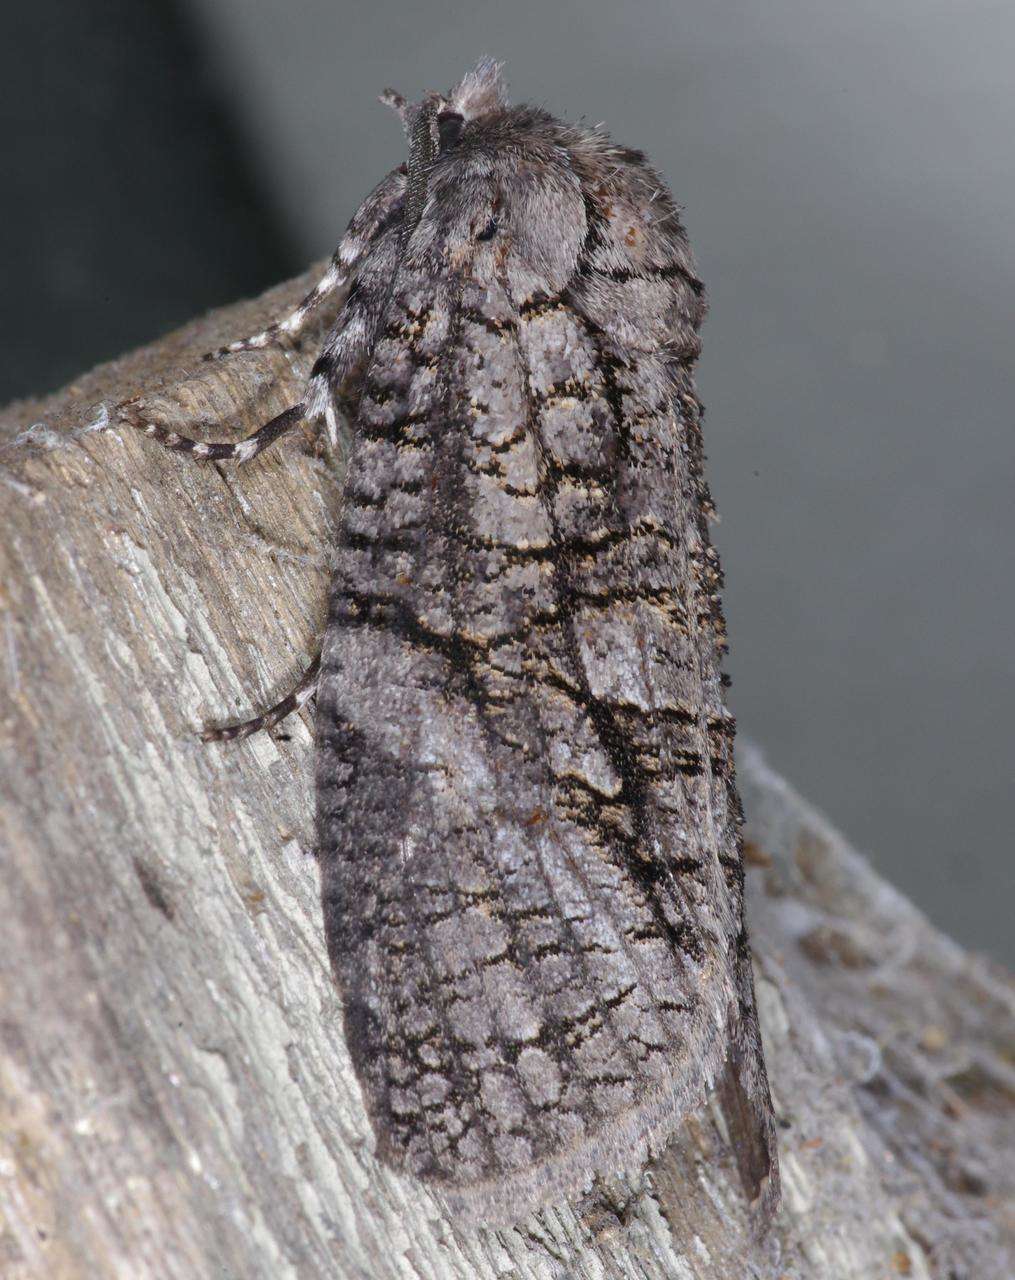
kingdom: Animalia
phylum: Arthropoda
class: Insecta
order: Lepidoptera
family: Cossidae
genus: Culama
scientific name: Culama australis
